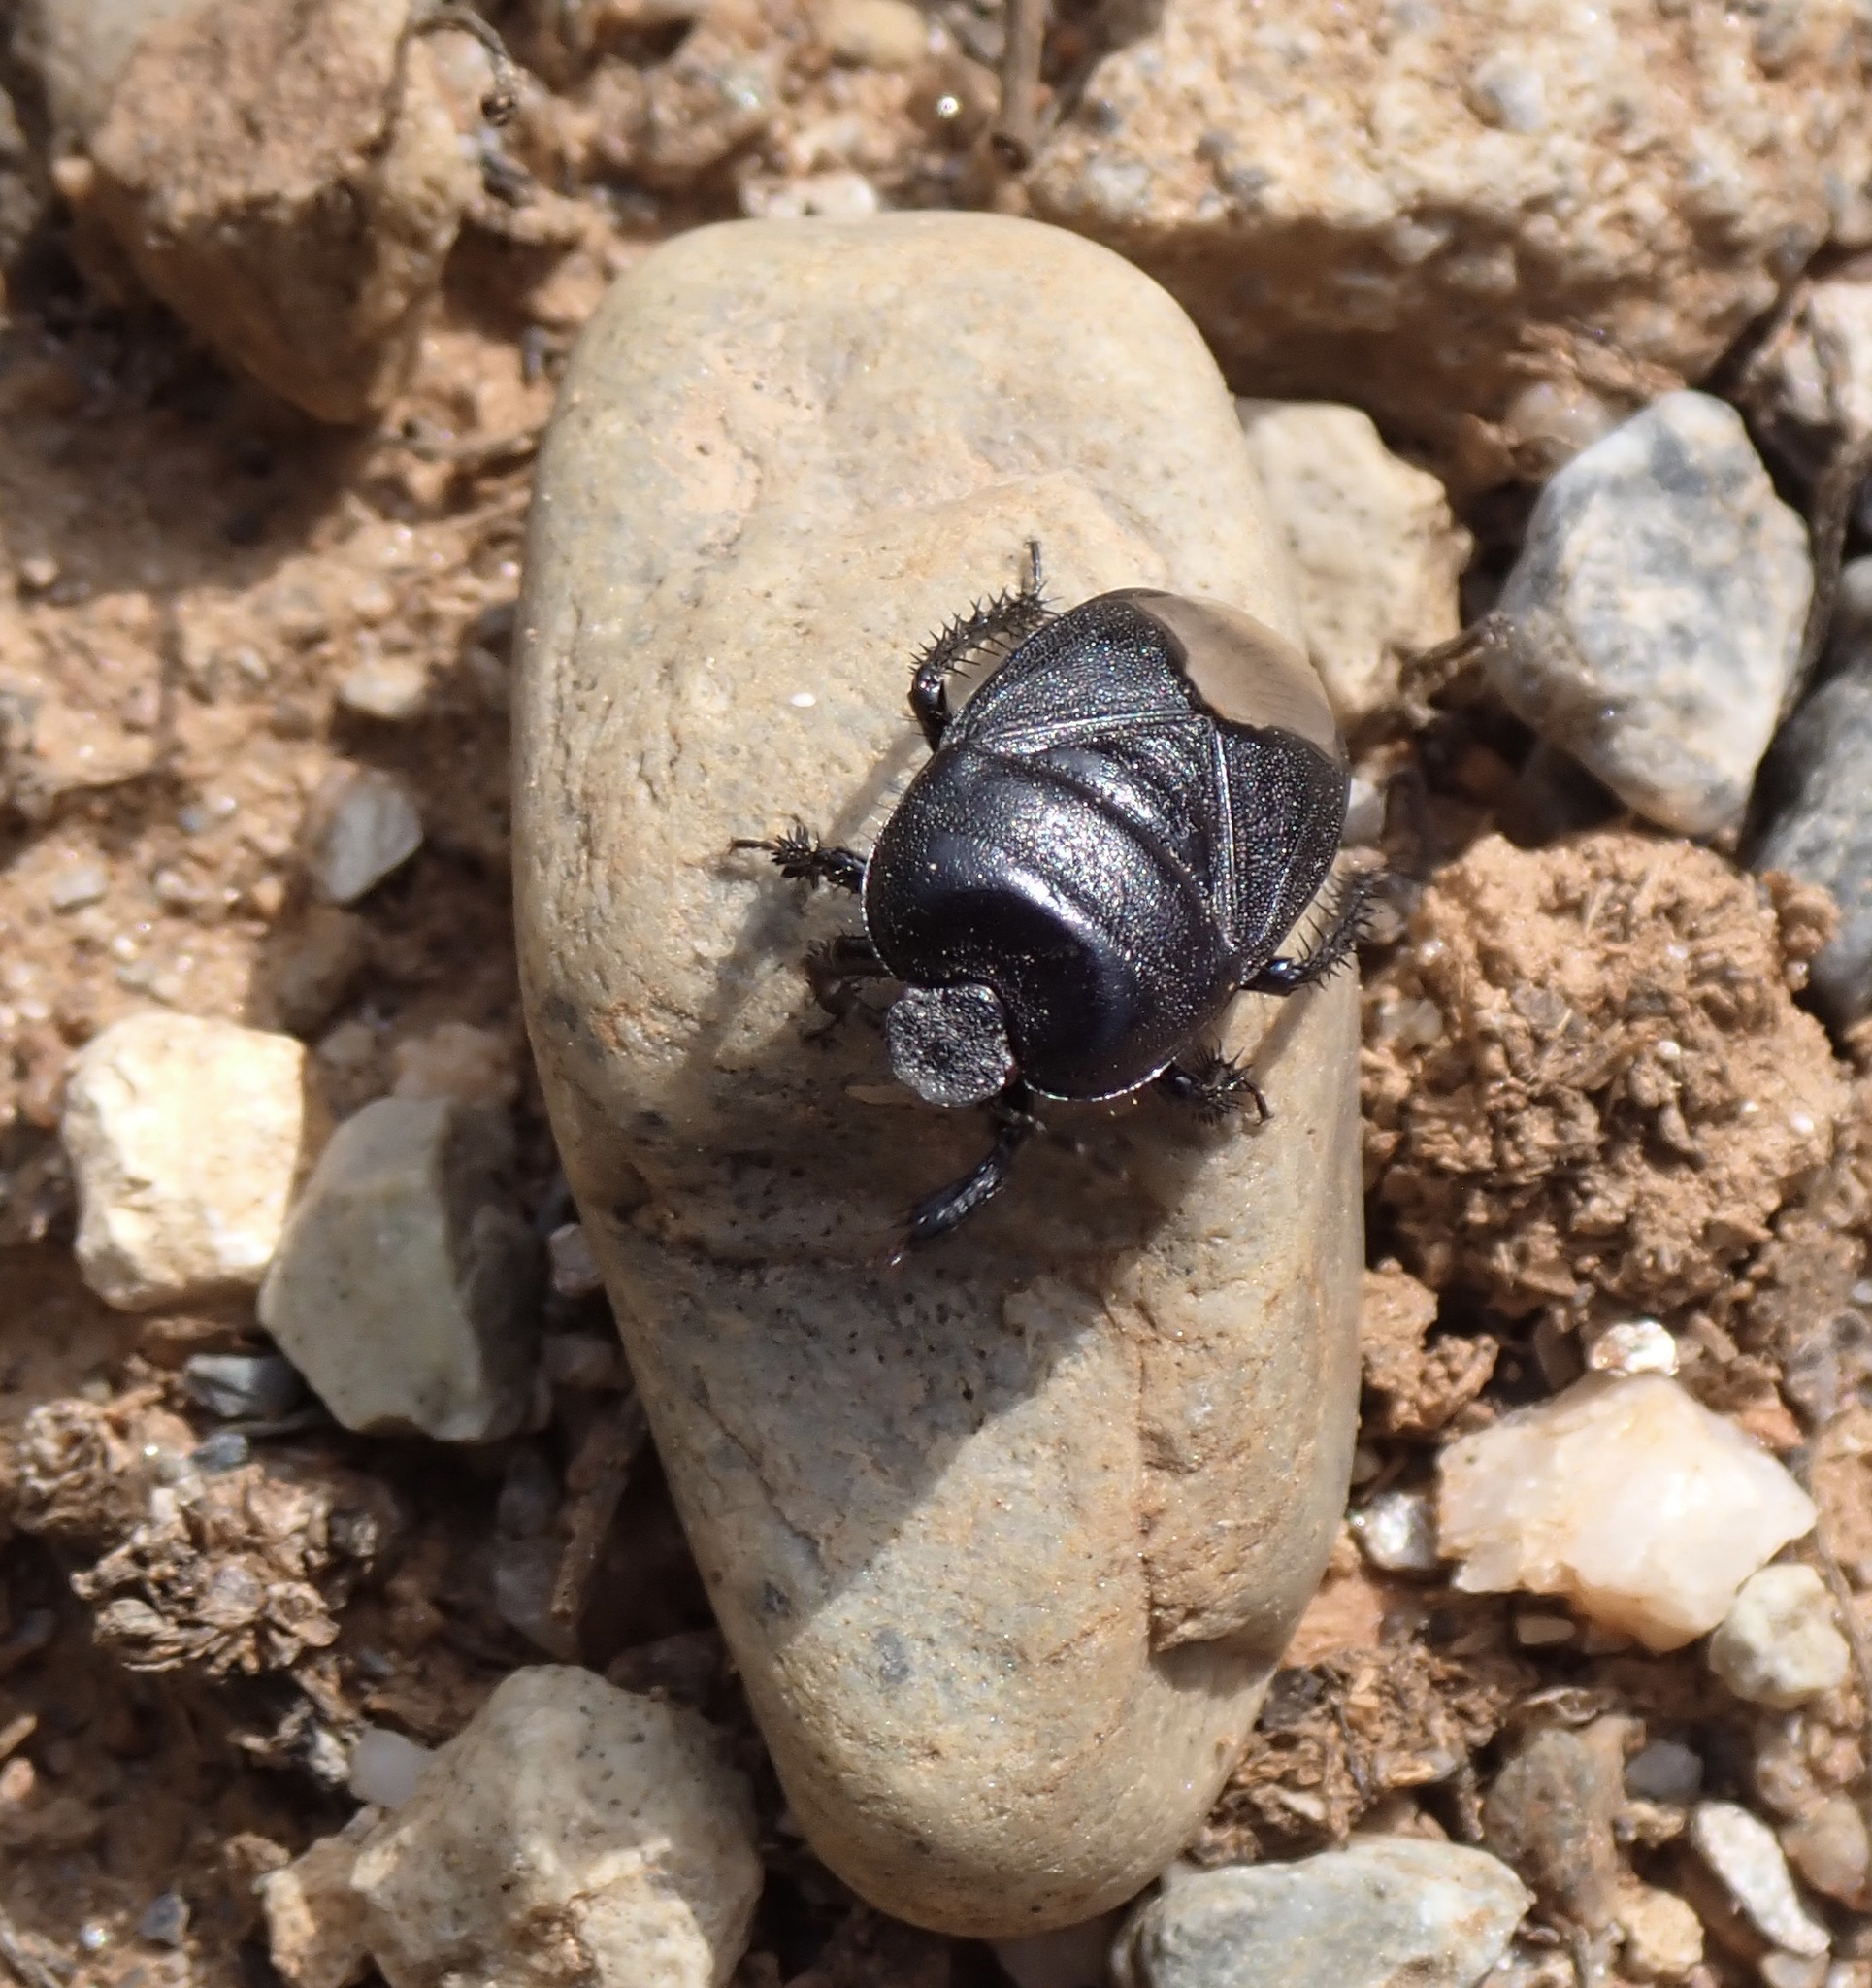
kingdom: Animalia
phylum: Arthropoda
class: Insecta
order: Hemiptera
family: Cydnidae
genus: Cydnus
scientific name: Cydnus aterrimus
